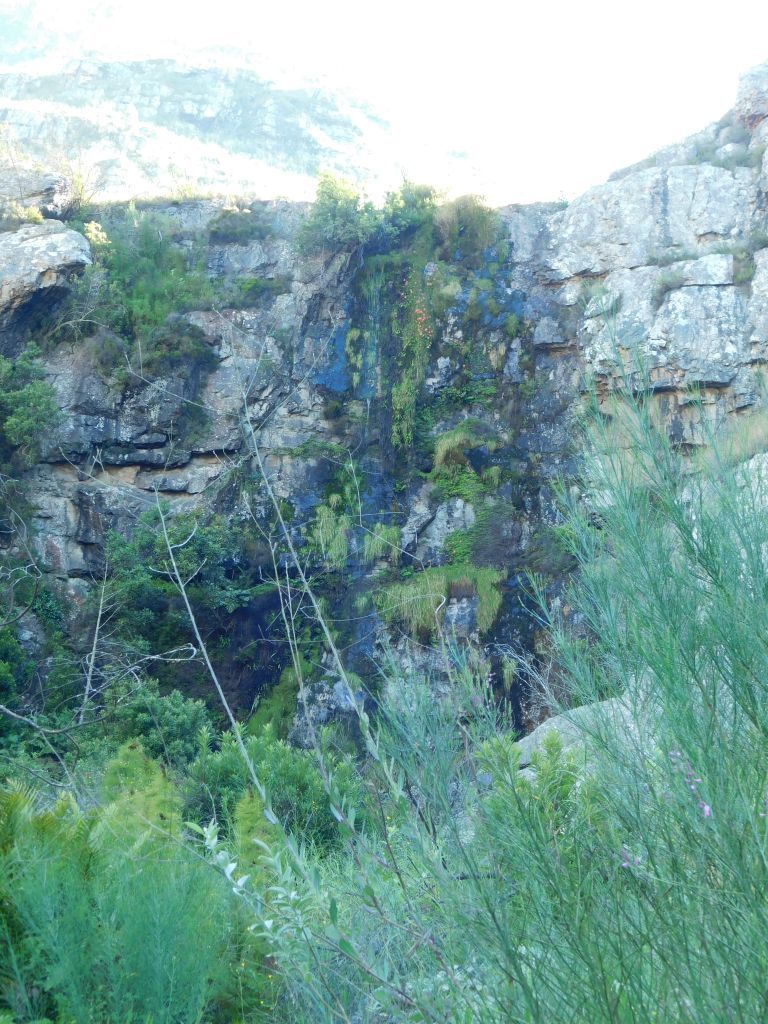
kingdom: Plantae
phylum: Tracheophyta
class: Liliopsida
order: Asparagales
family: Orchidaceae
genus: Disa
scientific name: Disa uniflora
